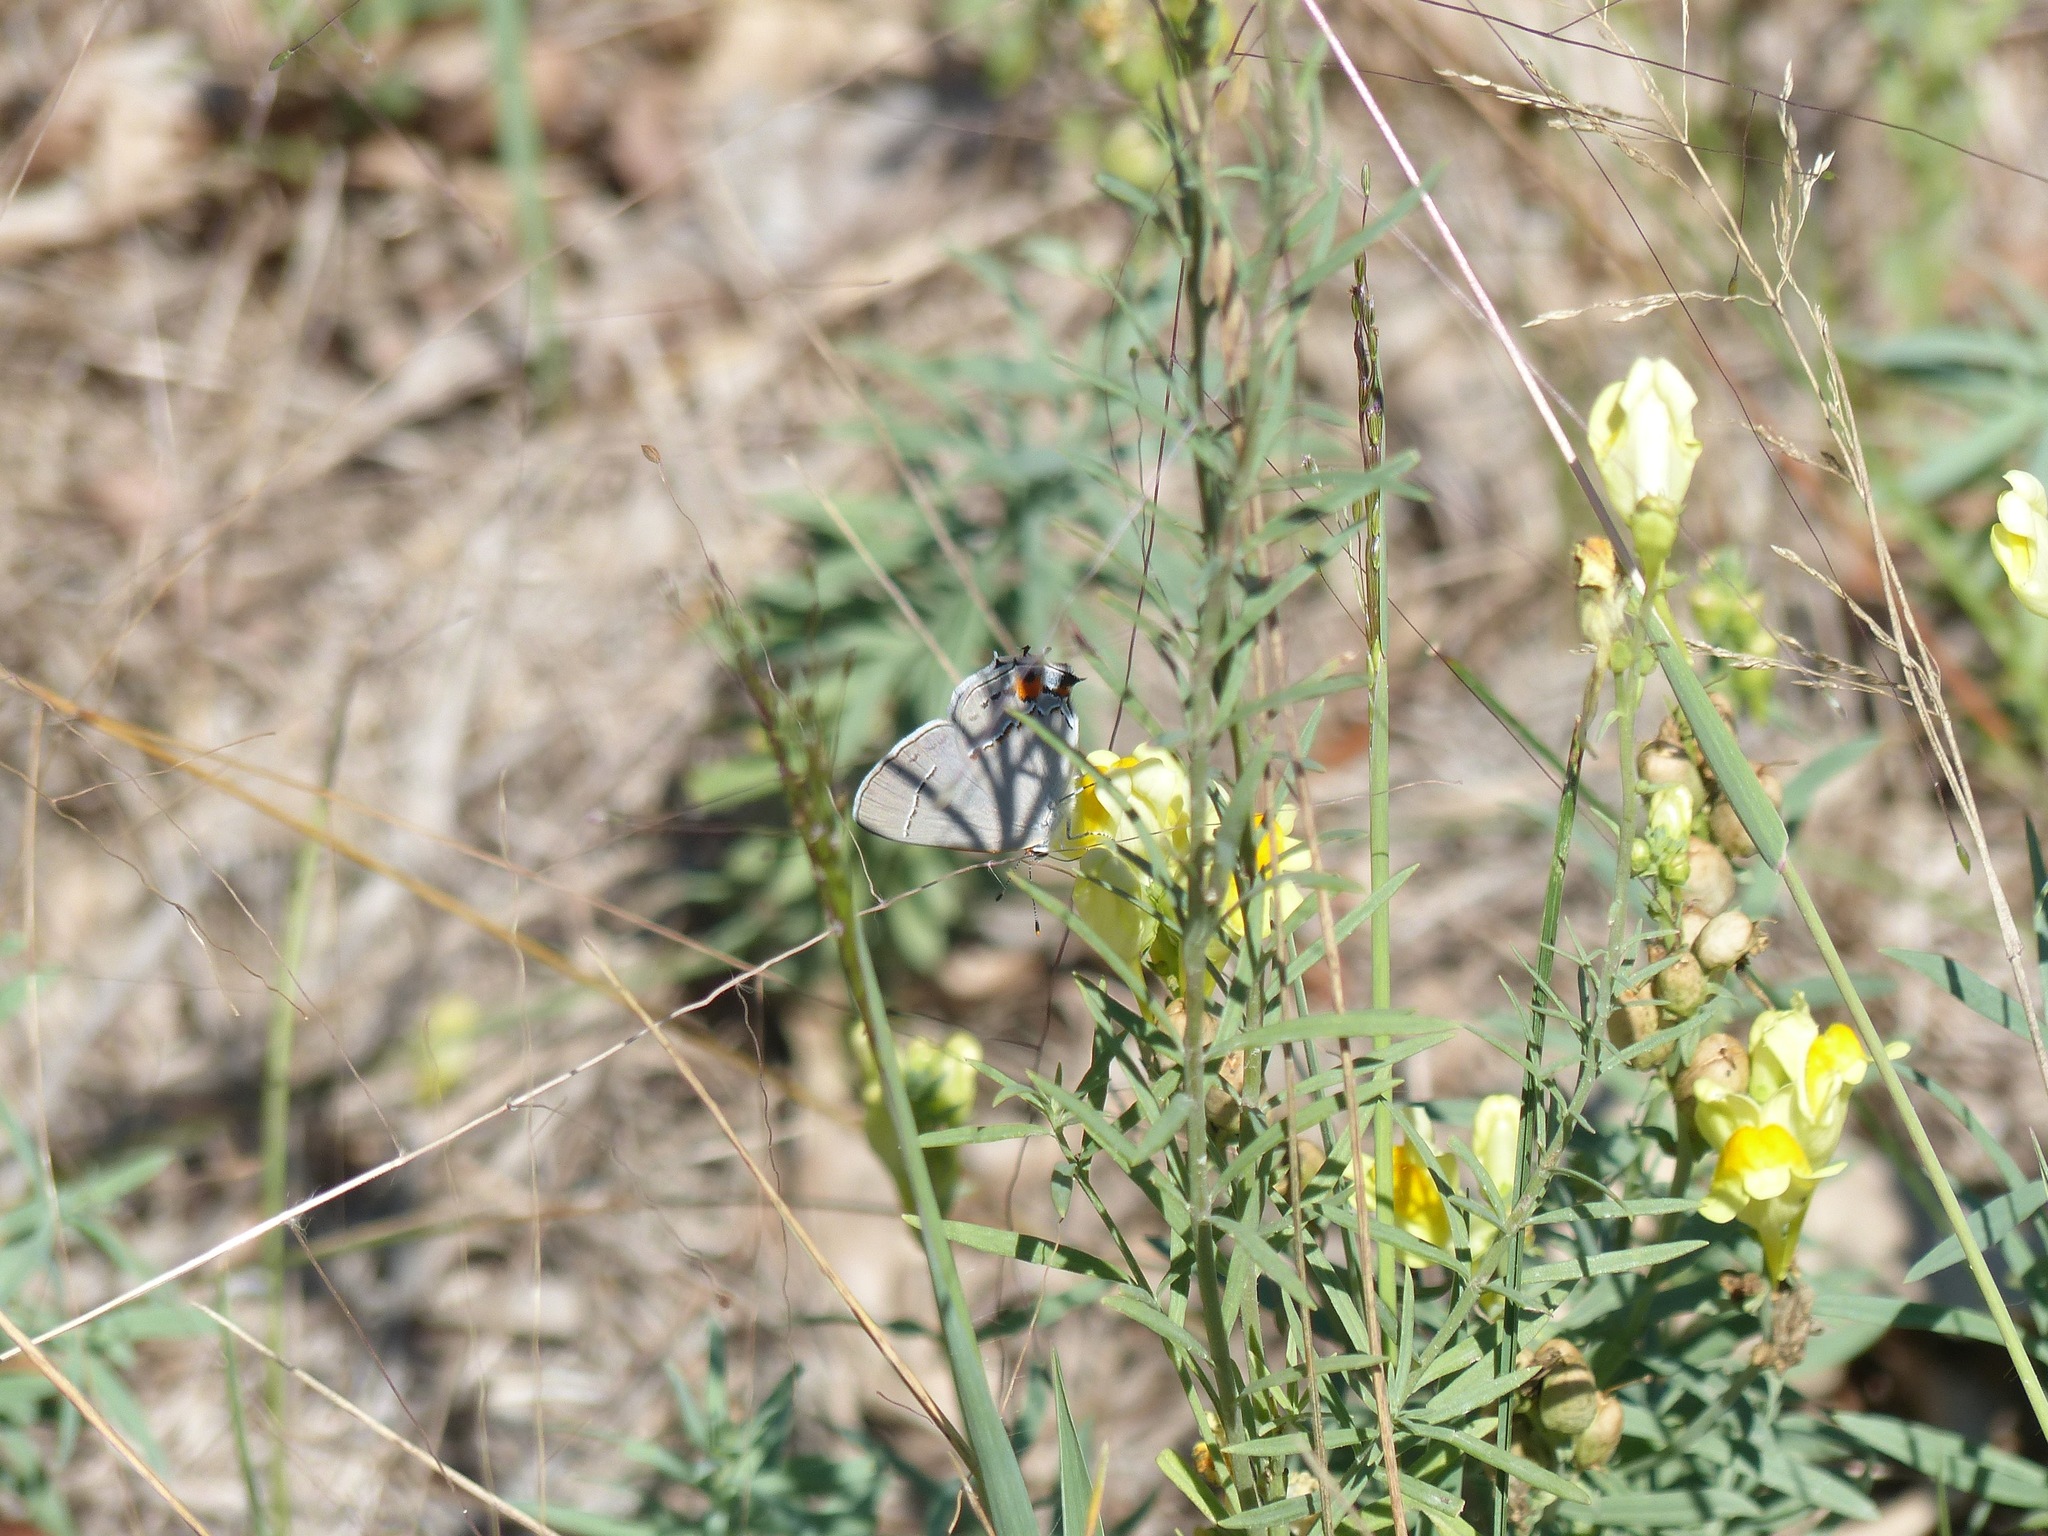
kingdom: Animalia
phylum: Arthropoda
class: Insecta
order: Lepidoptera
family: Lycaenidae
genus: Strymon
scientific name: Strymon melinus
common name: Gray hairstreak
